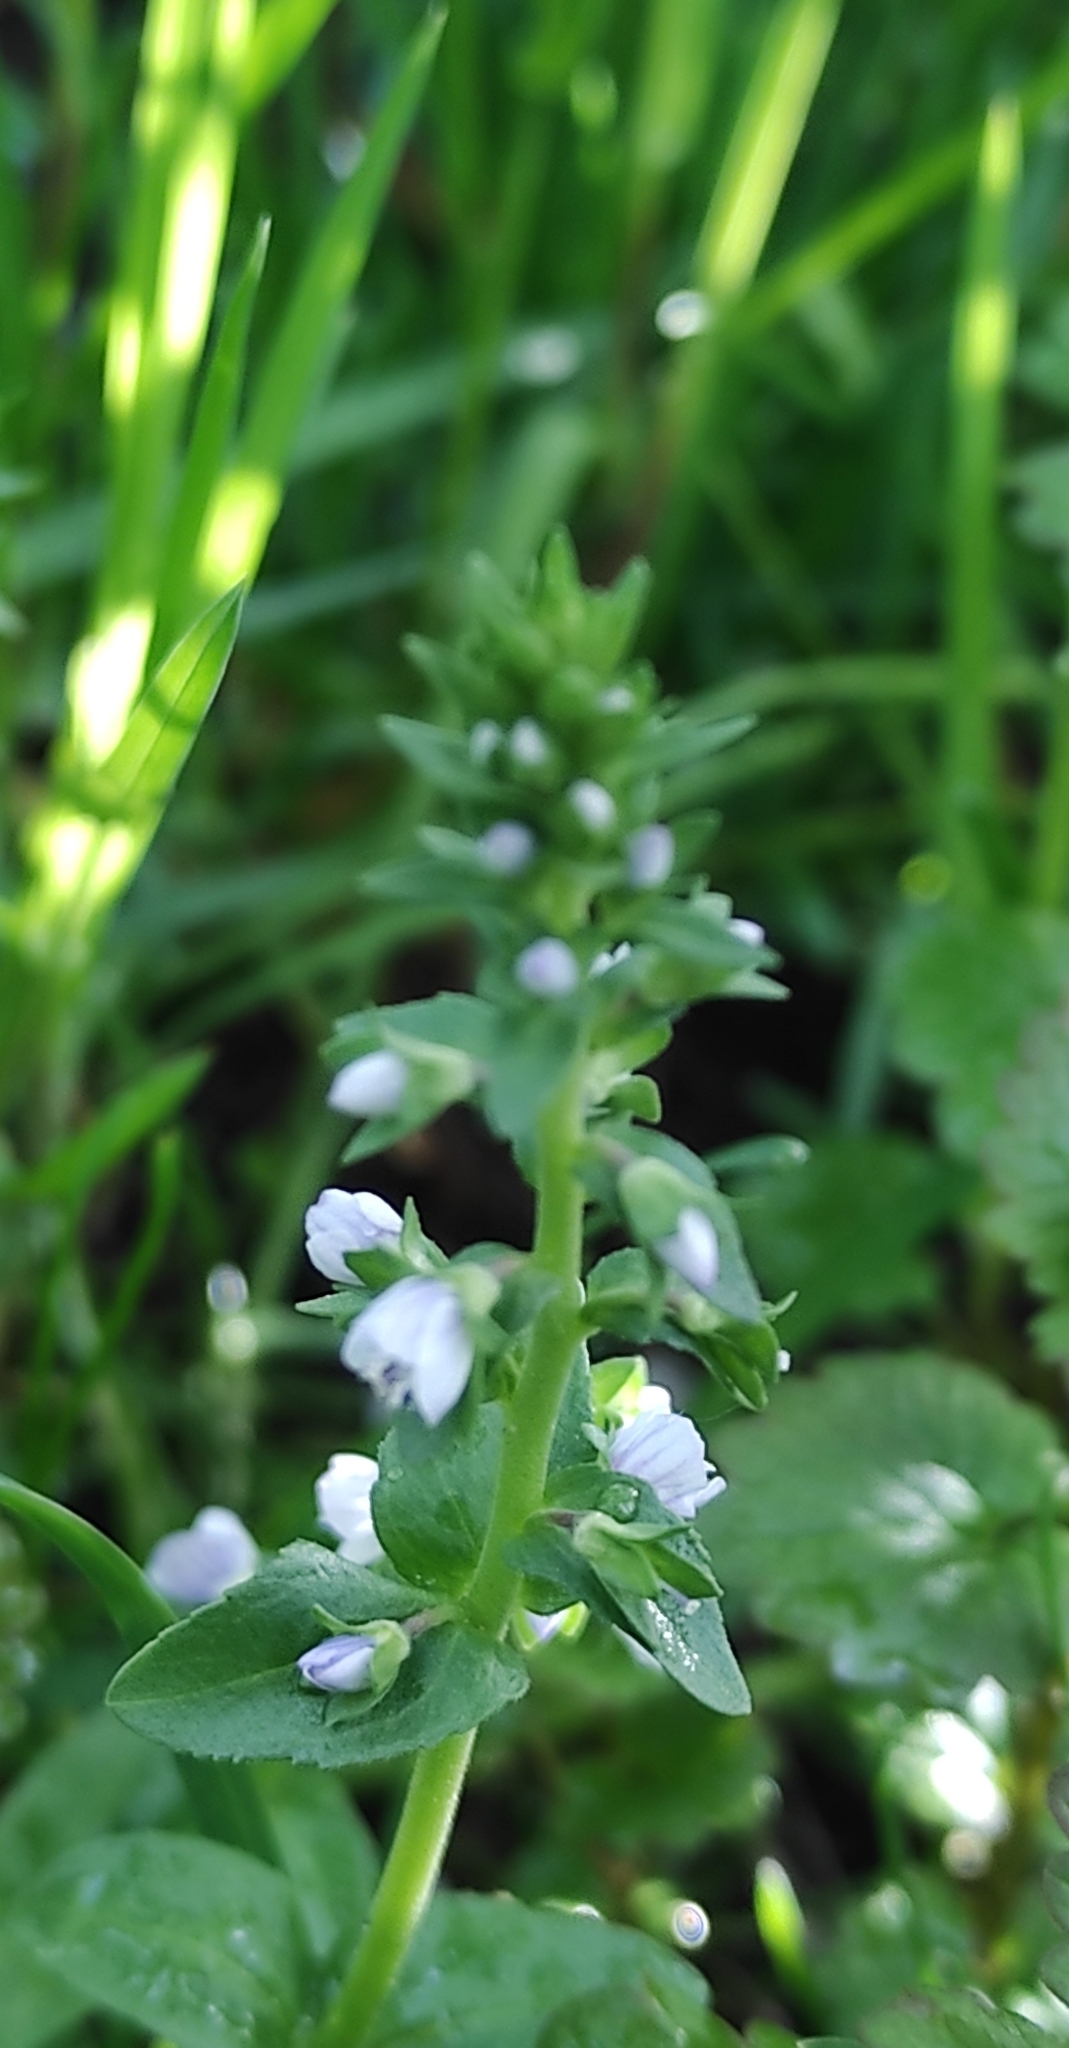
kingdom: Plantae
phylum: Tracheophyta
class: Magnoliopsida
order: Lamiales
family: Plantaginaceae
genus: Veronica
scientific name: Veronica serpyllifolia
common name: Thyme-leaved speedwell
